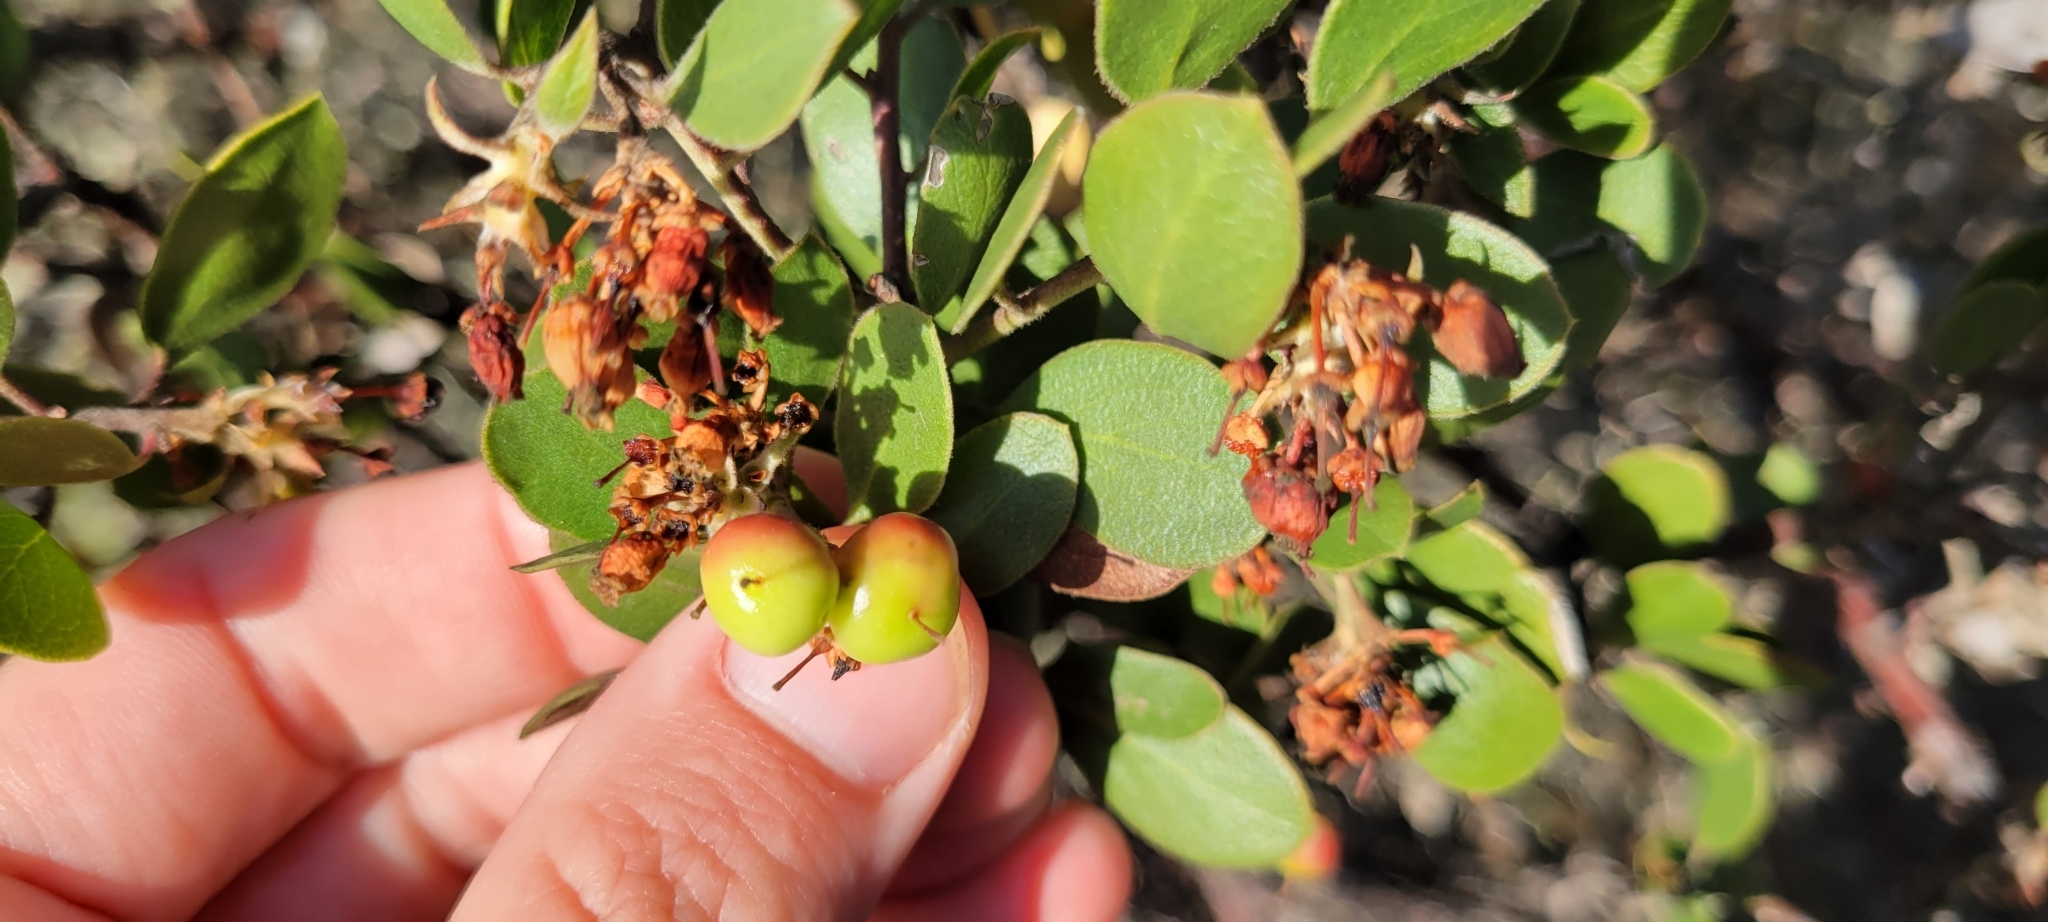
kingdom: Plantae
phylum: Tracheophyta
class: Magnoliopsida
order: Ericales
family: Ericaceae
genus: Arctostaphylos
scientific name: Arctostaphylos rudis
